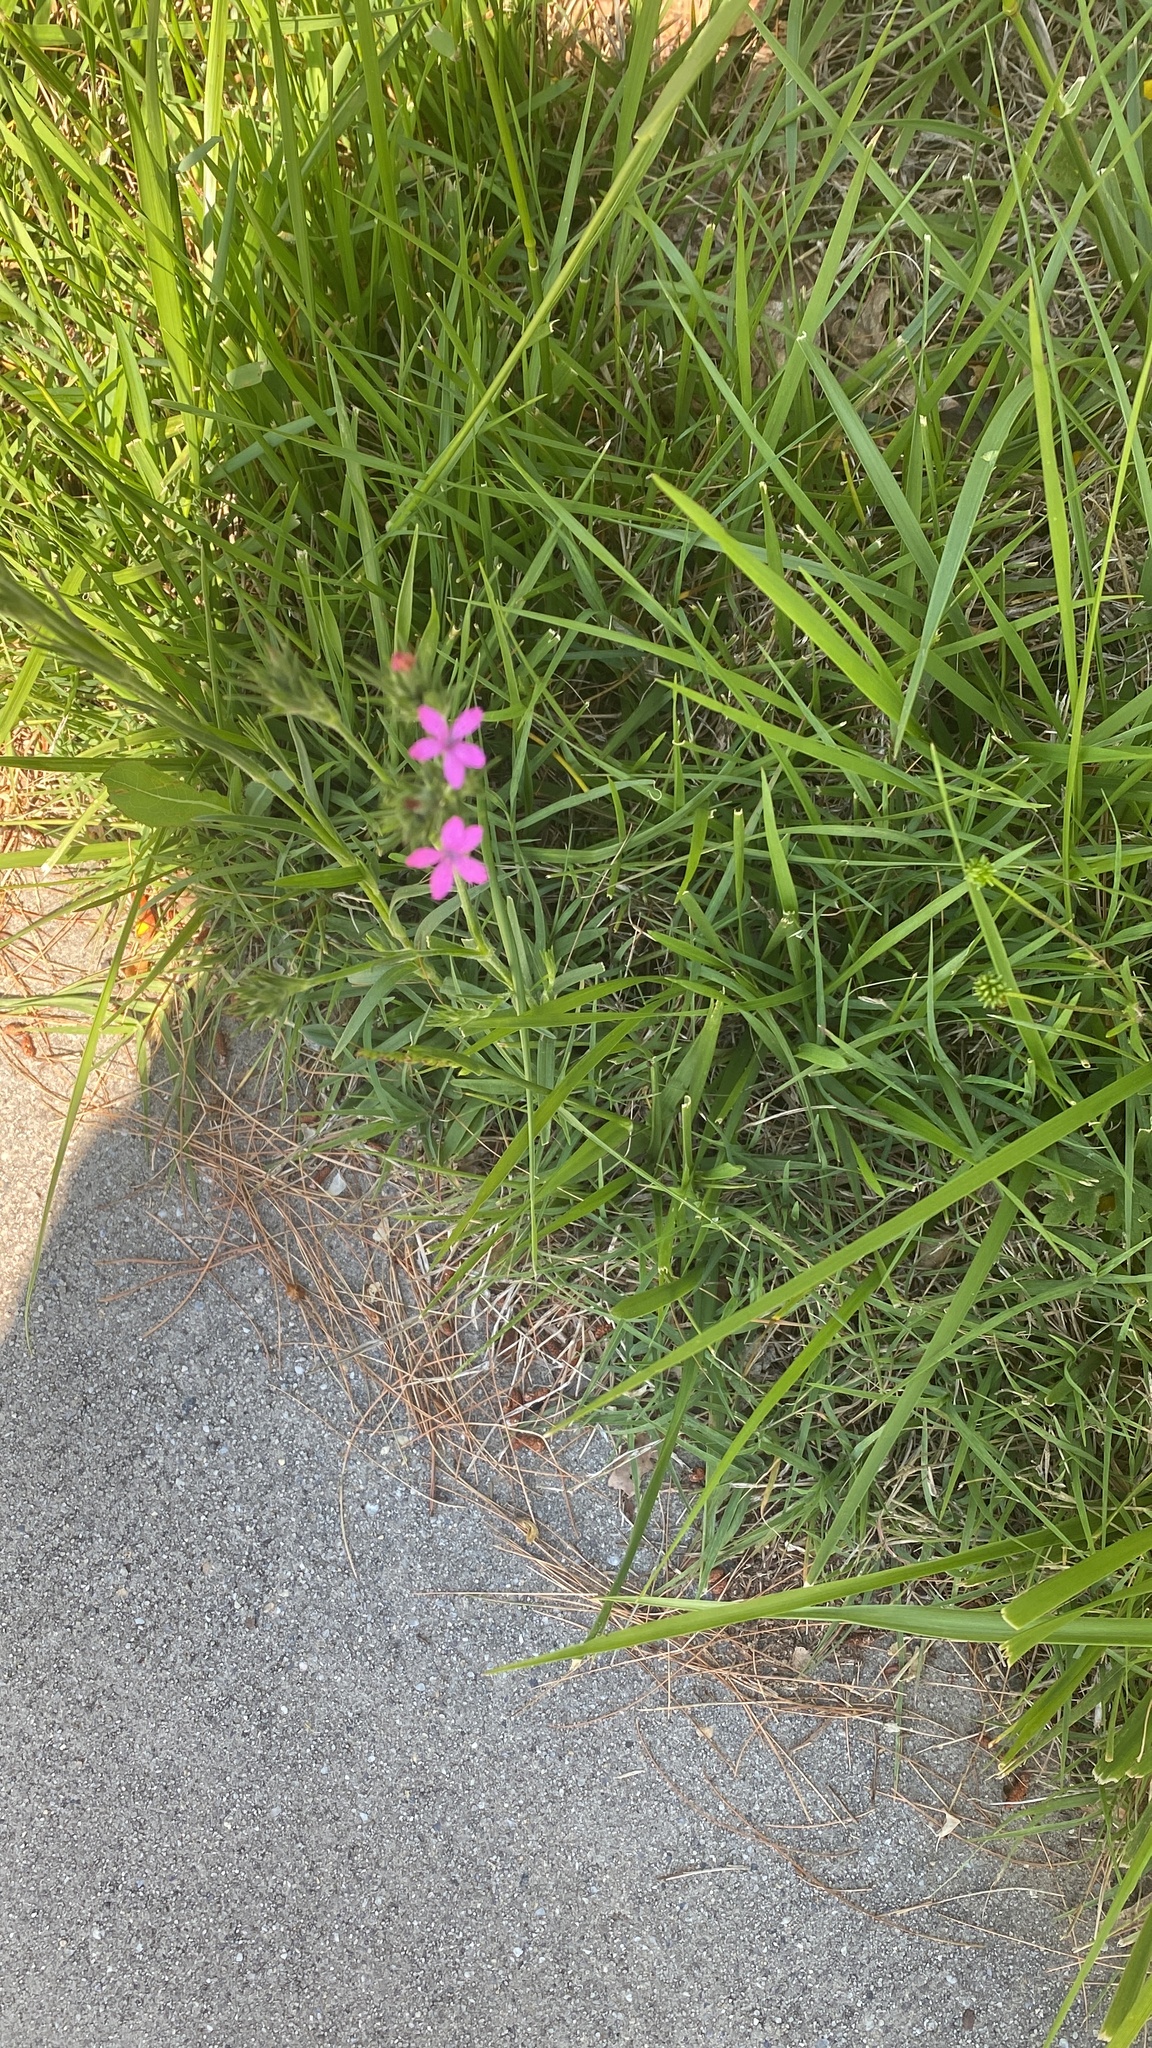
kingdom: Plantae
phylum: Tracheophyta
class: Magnoliopsida
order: Caryophyllales
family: Caryophyllaceae
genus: Dianthus
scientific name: Dianthus armeria
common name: Deptford pink
